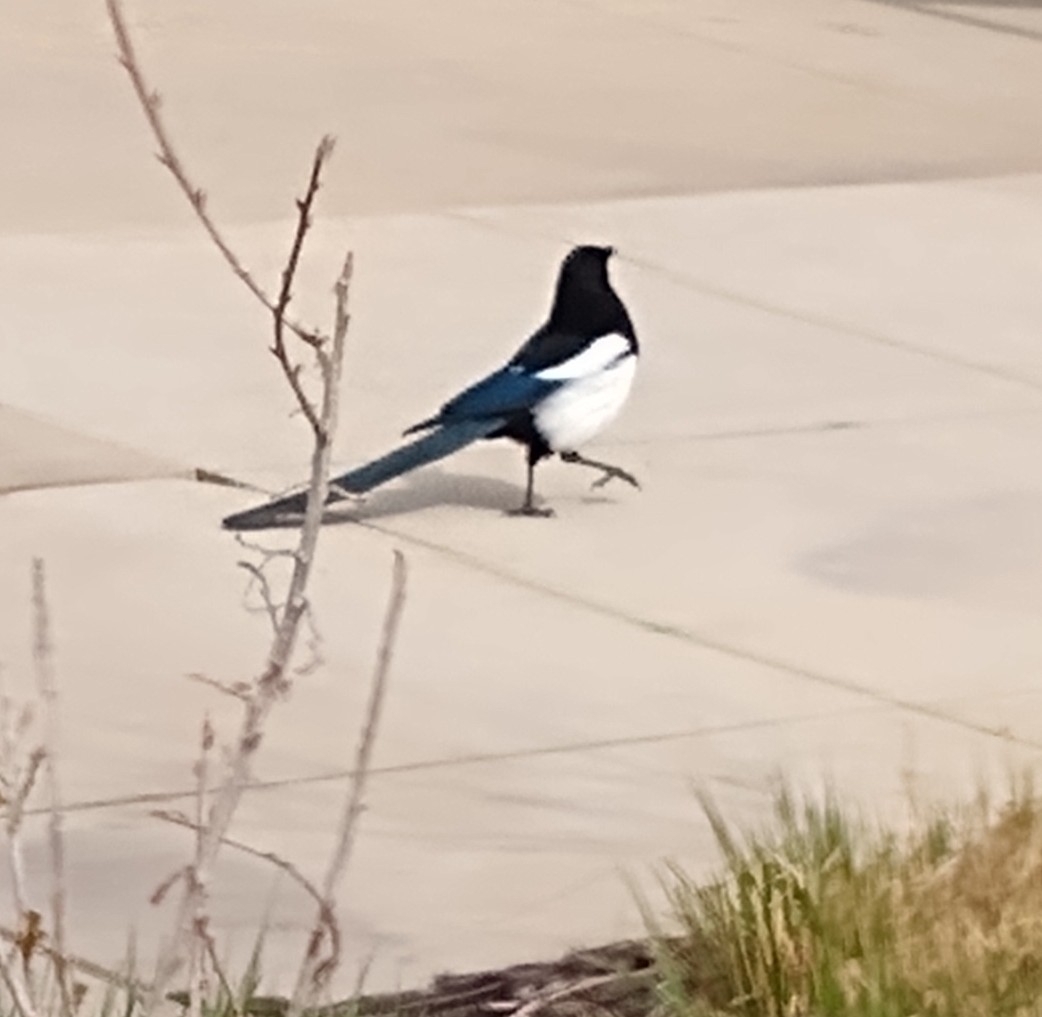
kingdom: Animalia
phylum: Chordata
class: Aves
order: Passeriformes
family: Corvidae
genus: Pica
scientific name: Pica hudsonia
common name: Black-billed magpie
